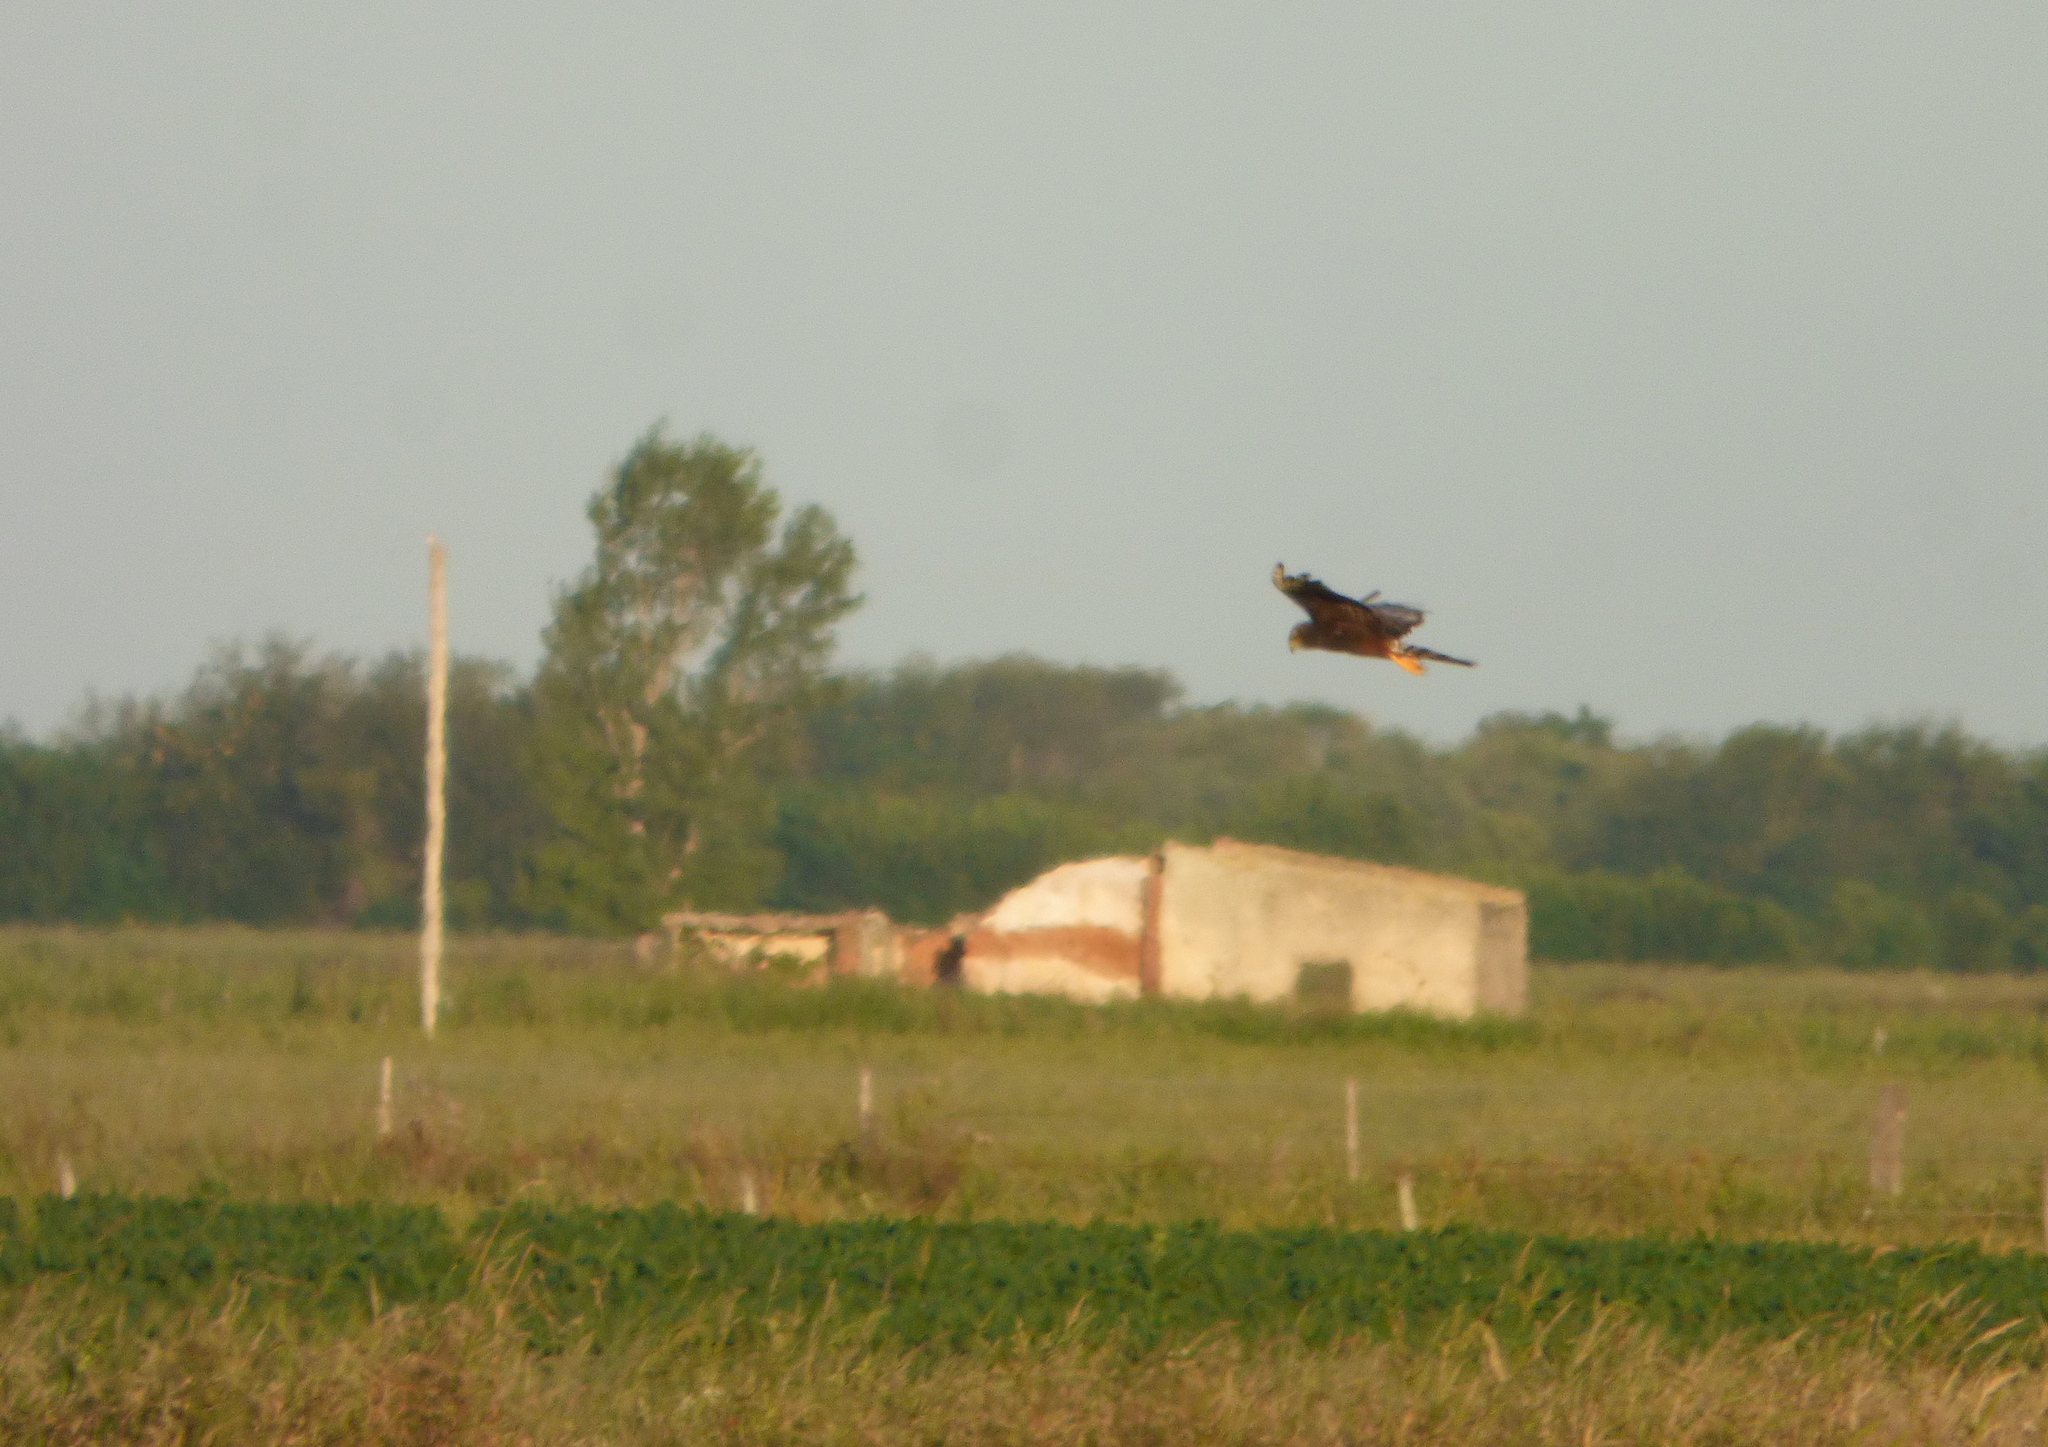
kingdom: Animalia
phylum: Chordata
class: Aves
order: Accipitriformes
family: Accipitridae
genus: Circus
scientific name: Circus buffoni
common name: Long-winged harrier
